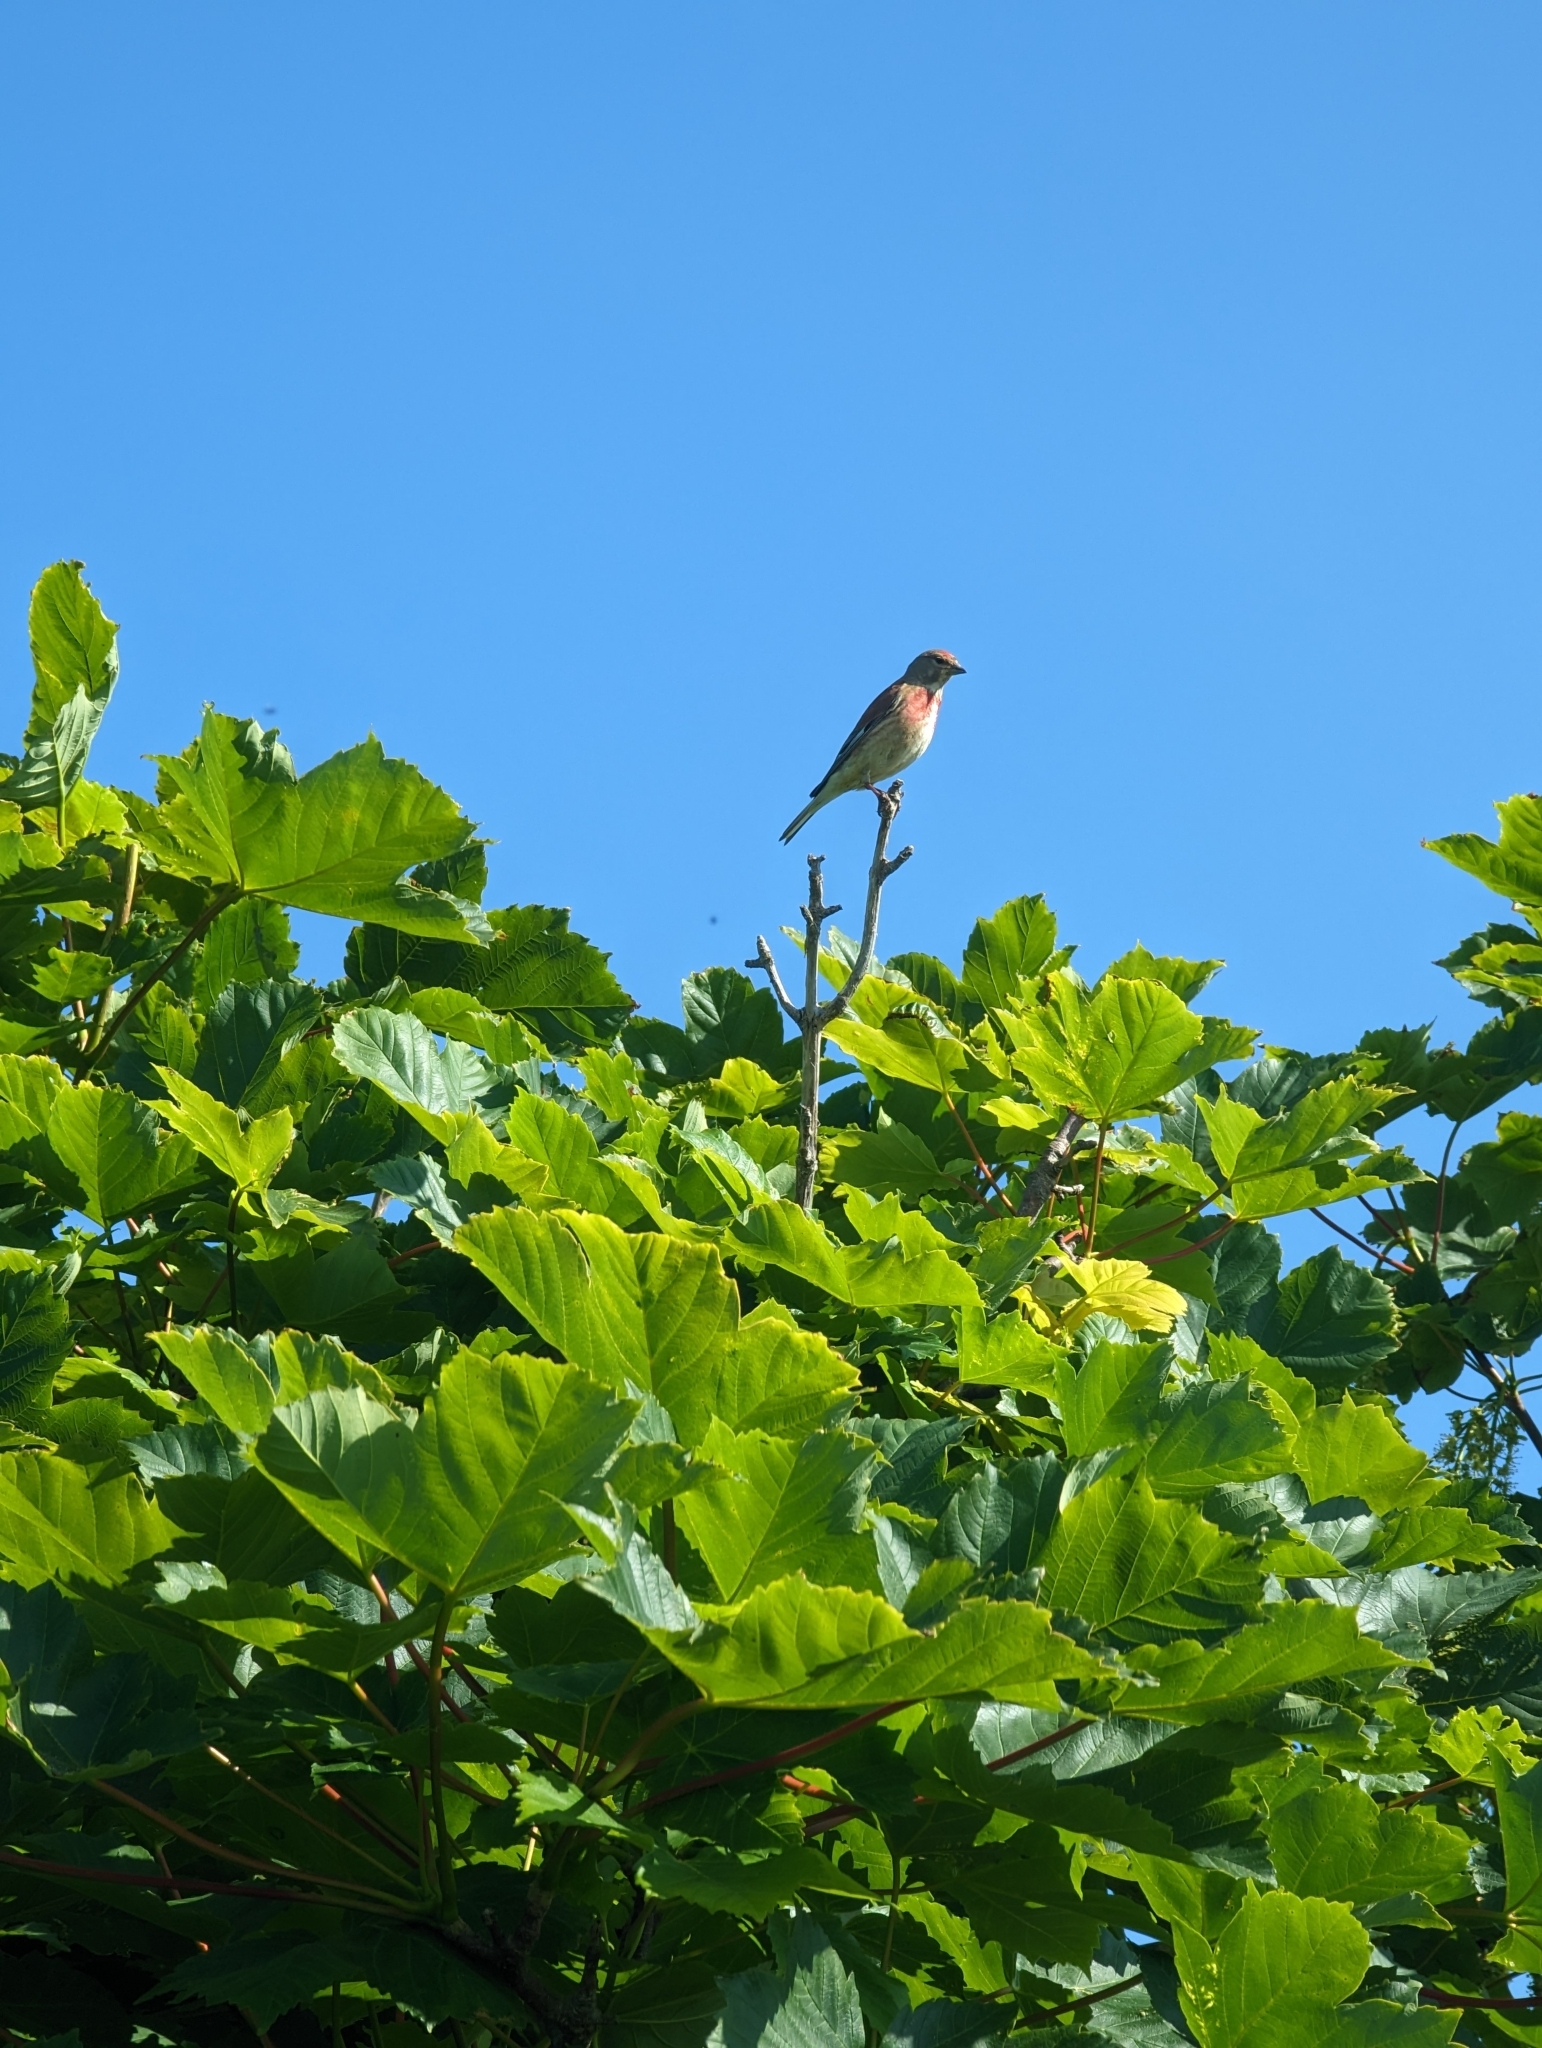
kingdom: Animalia
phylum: Chordata
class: Aves
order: Passeriformes
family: Fringillidae
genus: Linaria
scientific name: Linaria cannabina
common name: Common linnet
